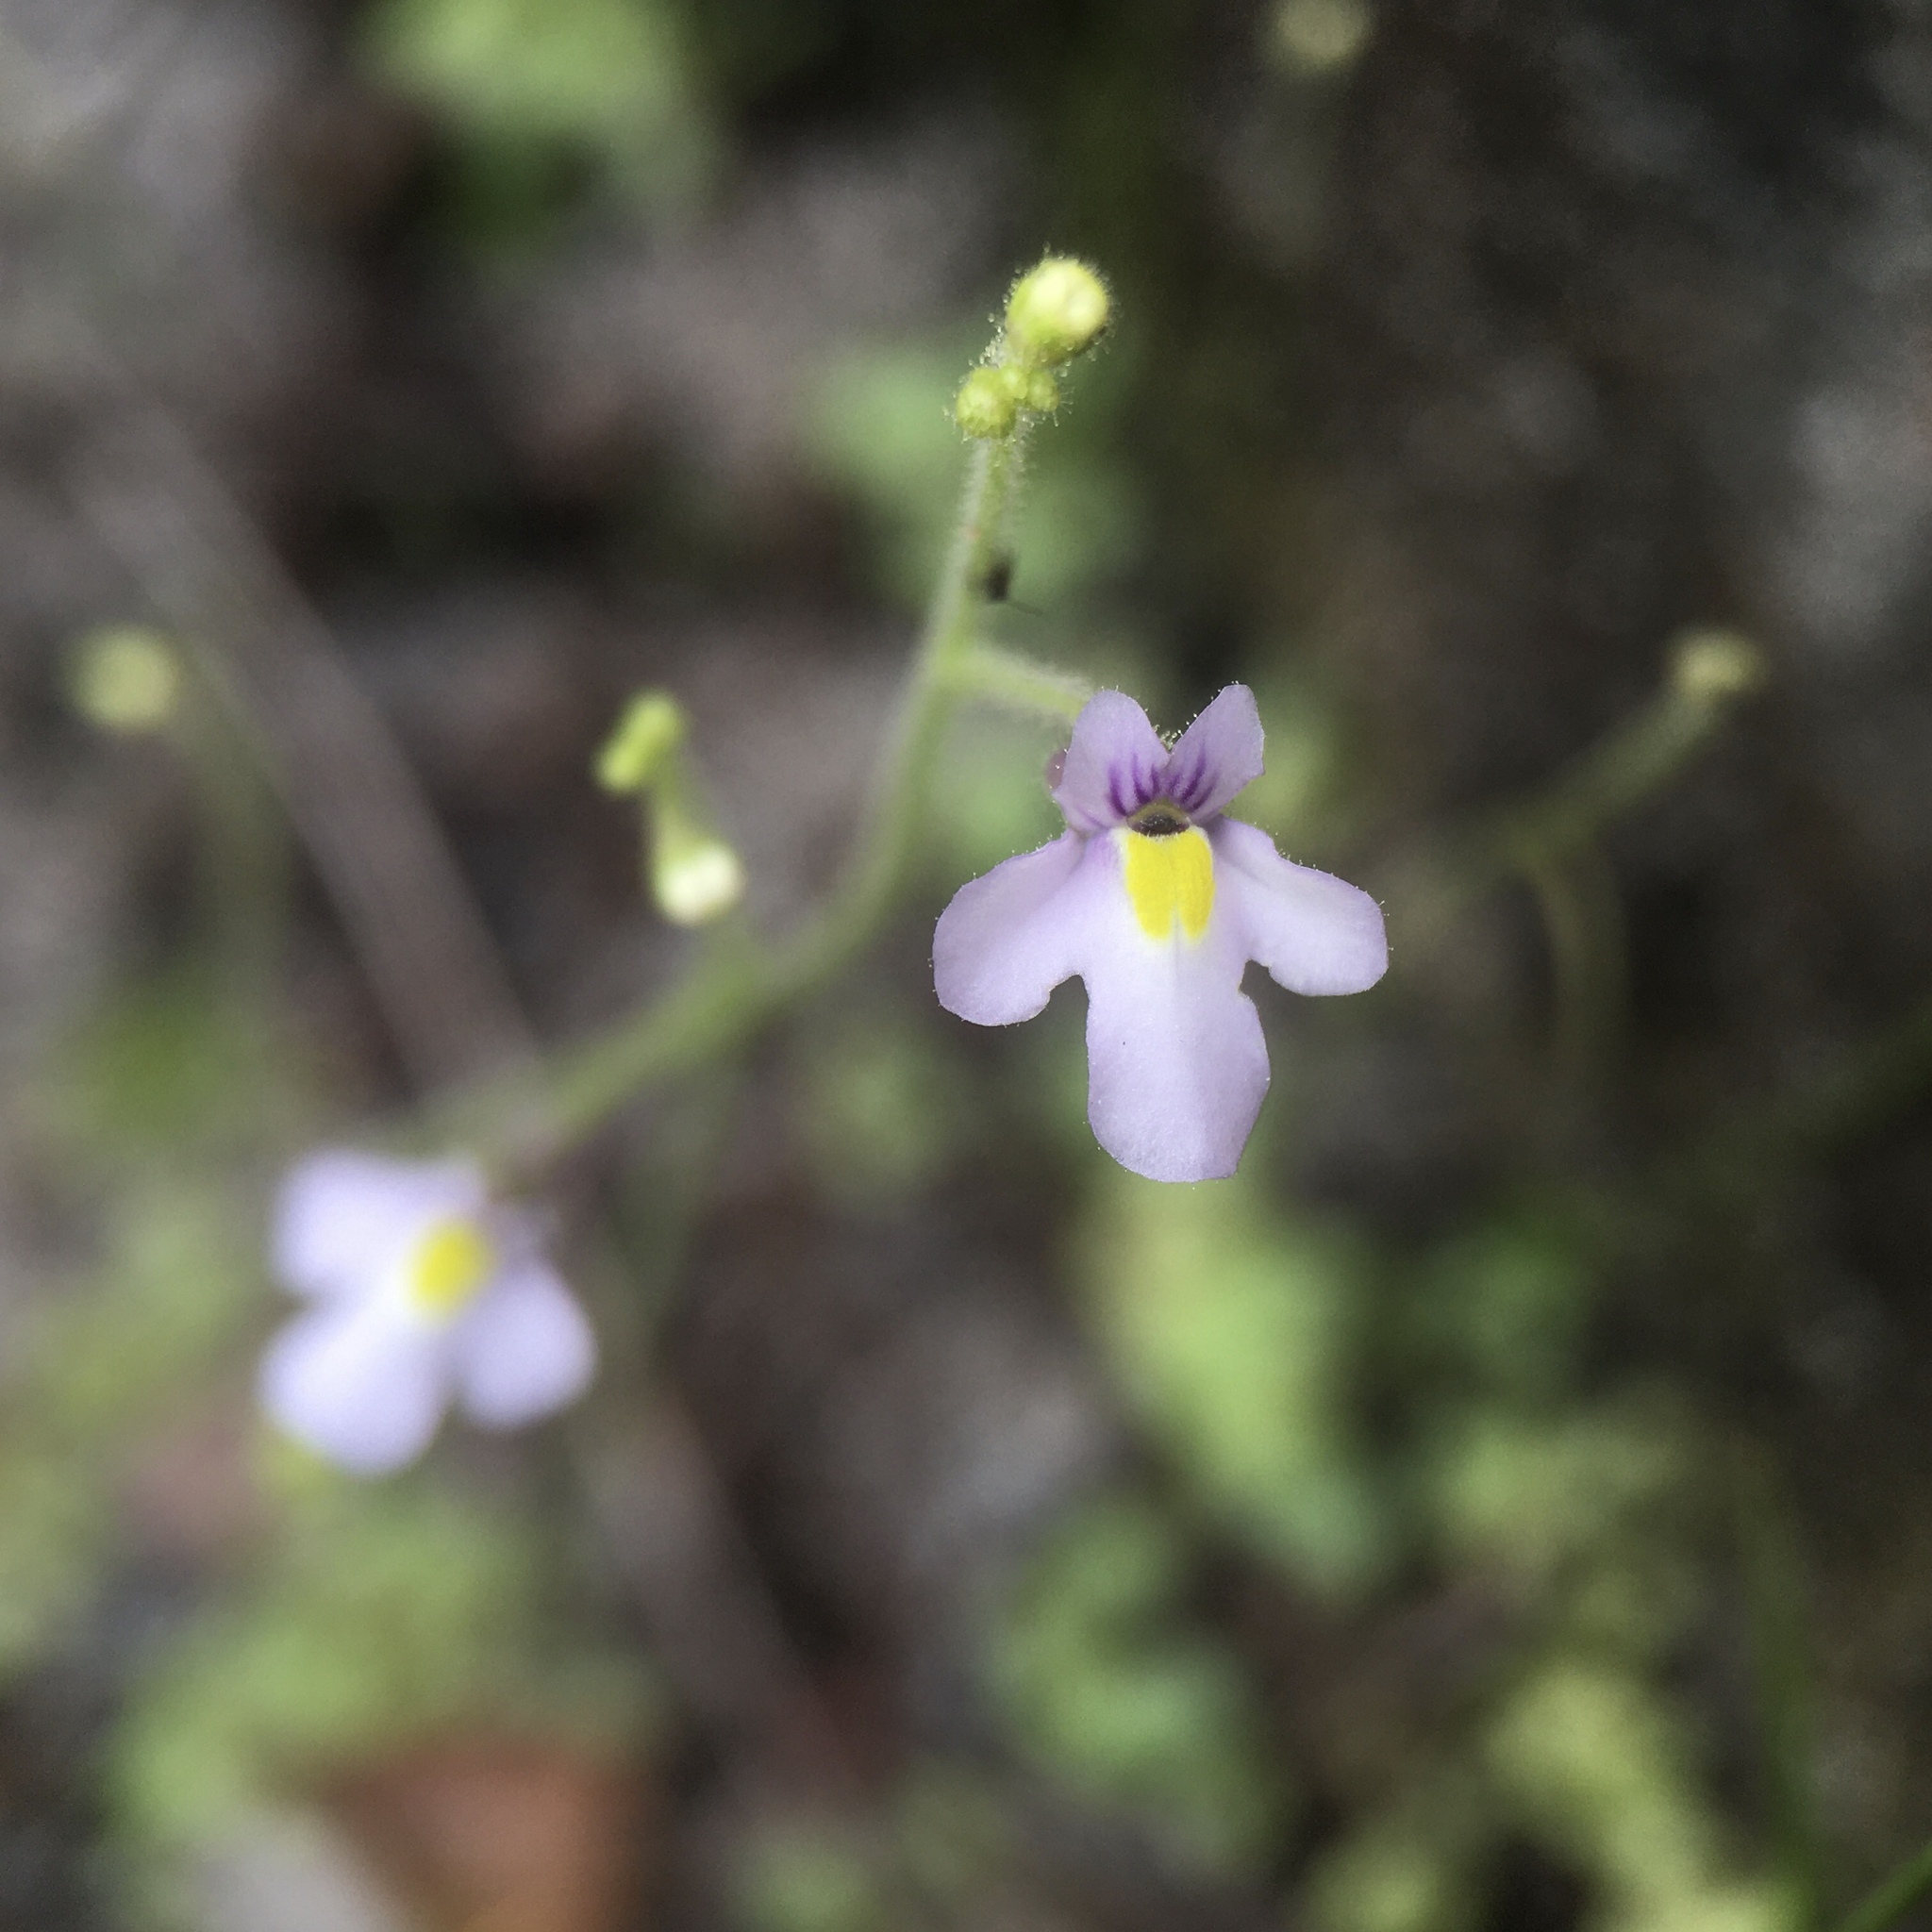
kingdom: Plantae
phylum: Tracheophyta
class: Magnoliopsida
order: Lamiales
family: Lentibulariaceae
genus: Genlisea
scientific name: Genlisea flexuosa
